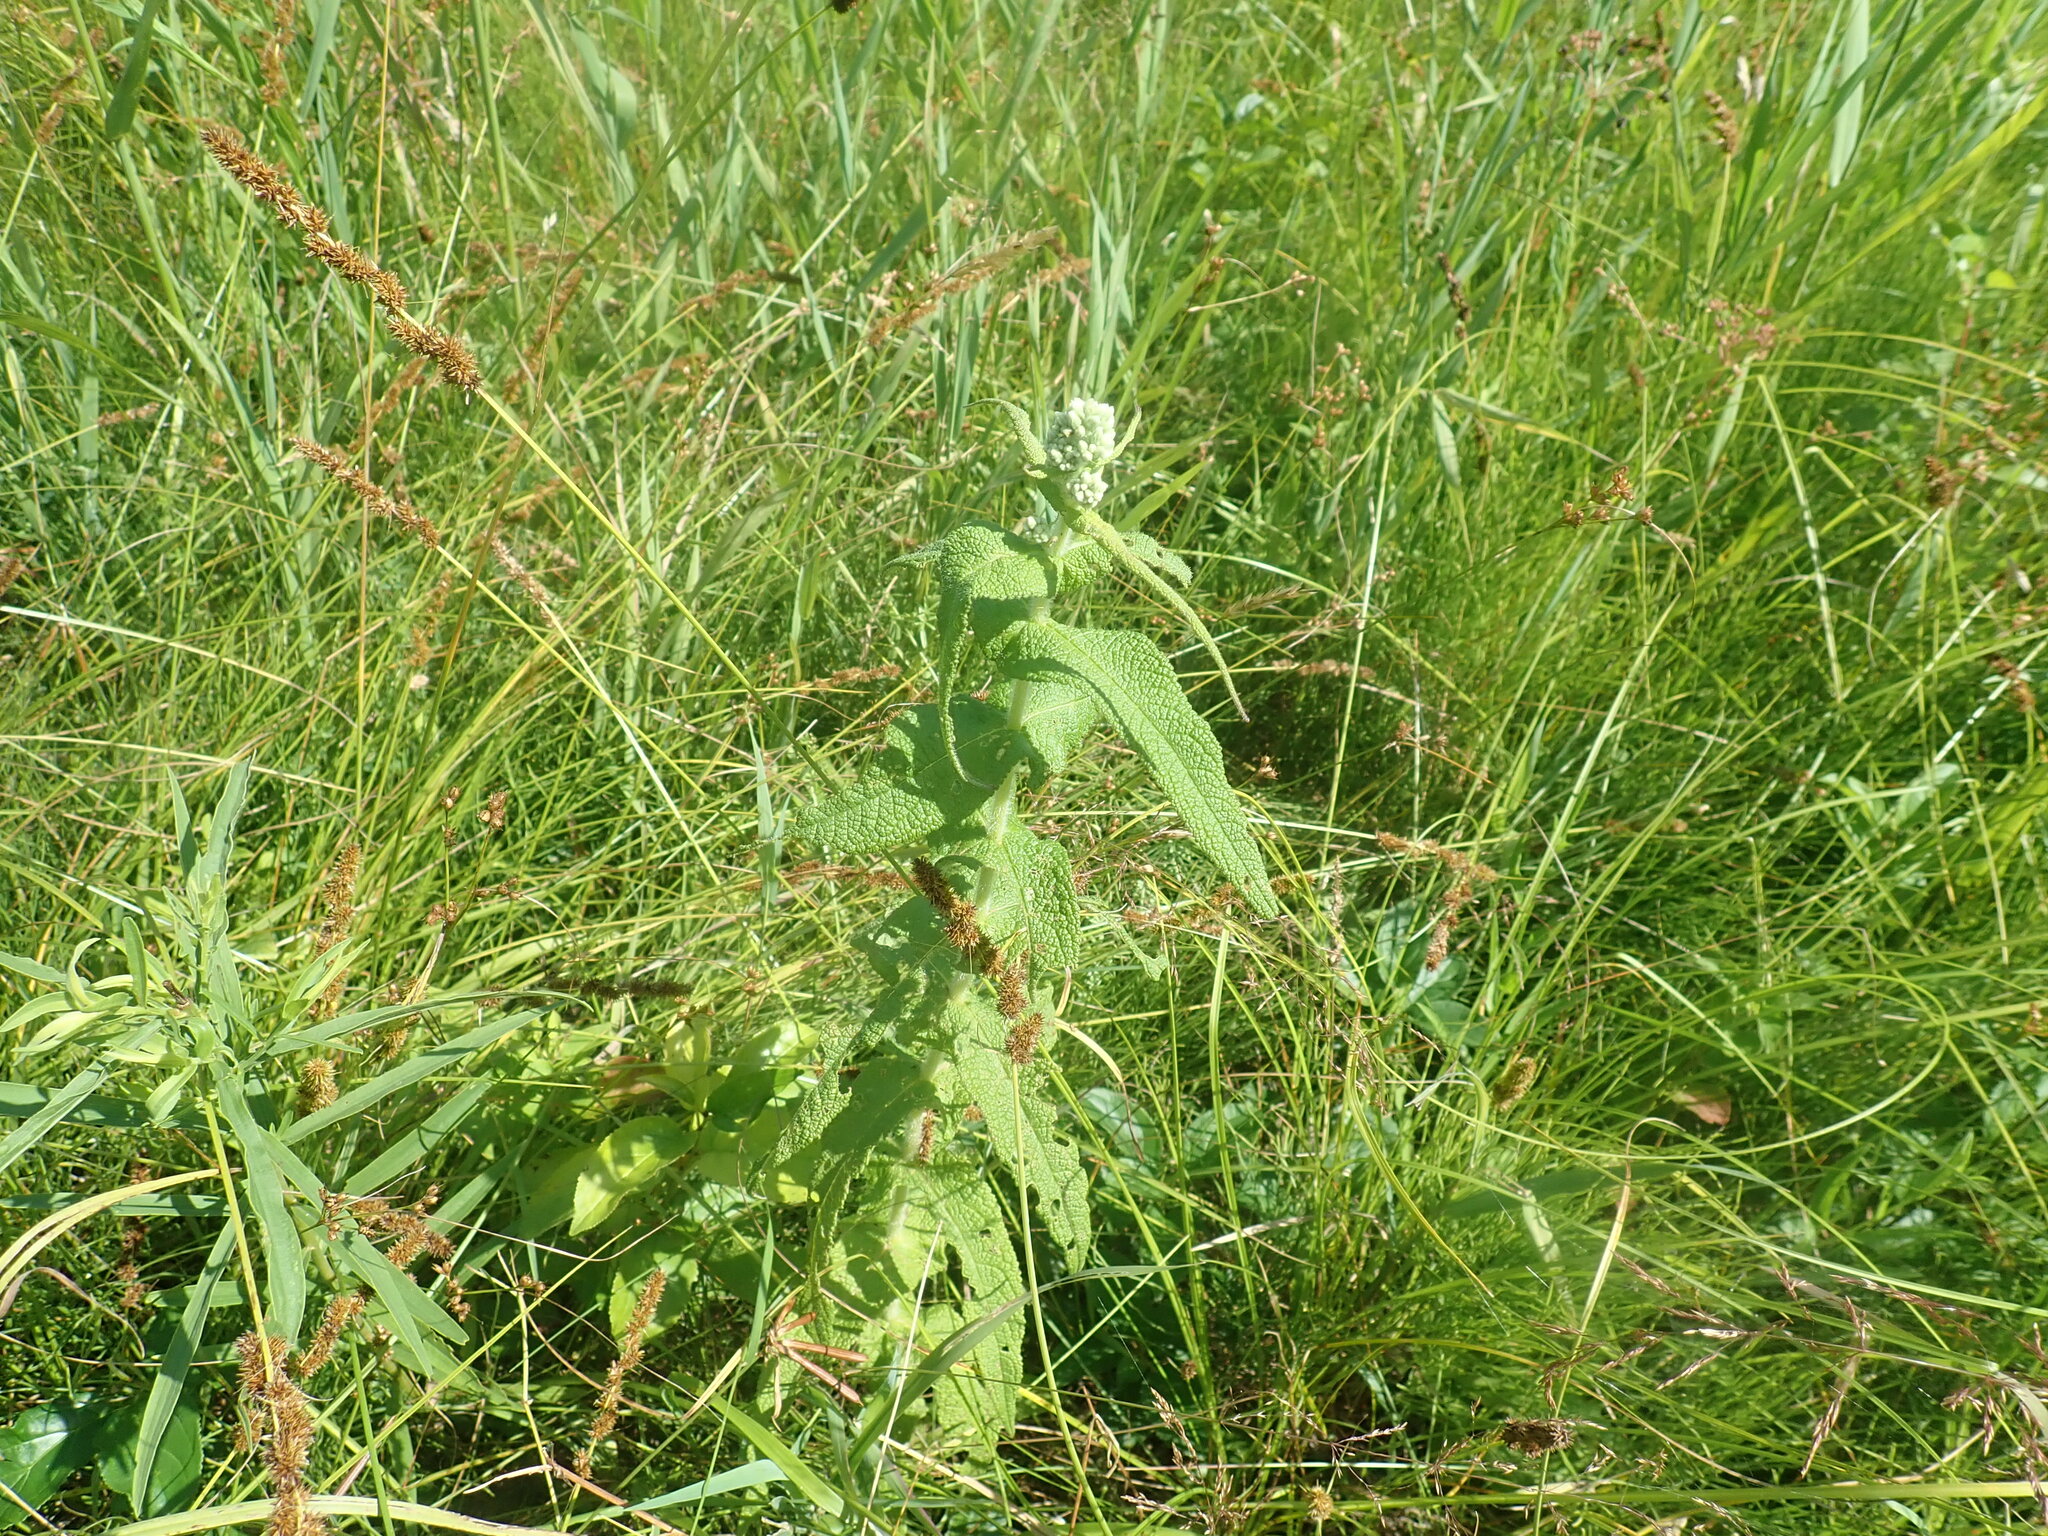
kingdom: Plantae
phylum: Tracheophyta
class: Magnoliopsida
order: Asterales
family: Asteraceae
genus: Eupatorium
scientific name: Eupatorium perfoliatum
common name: Boneset
